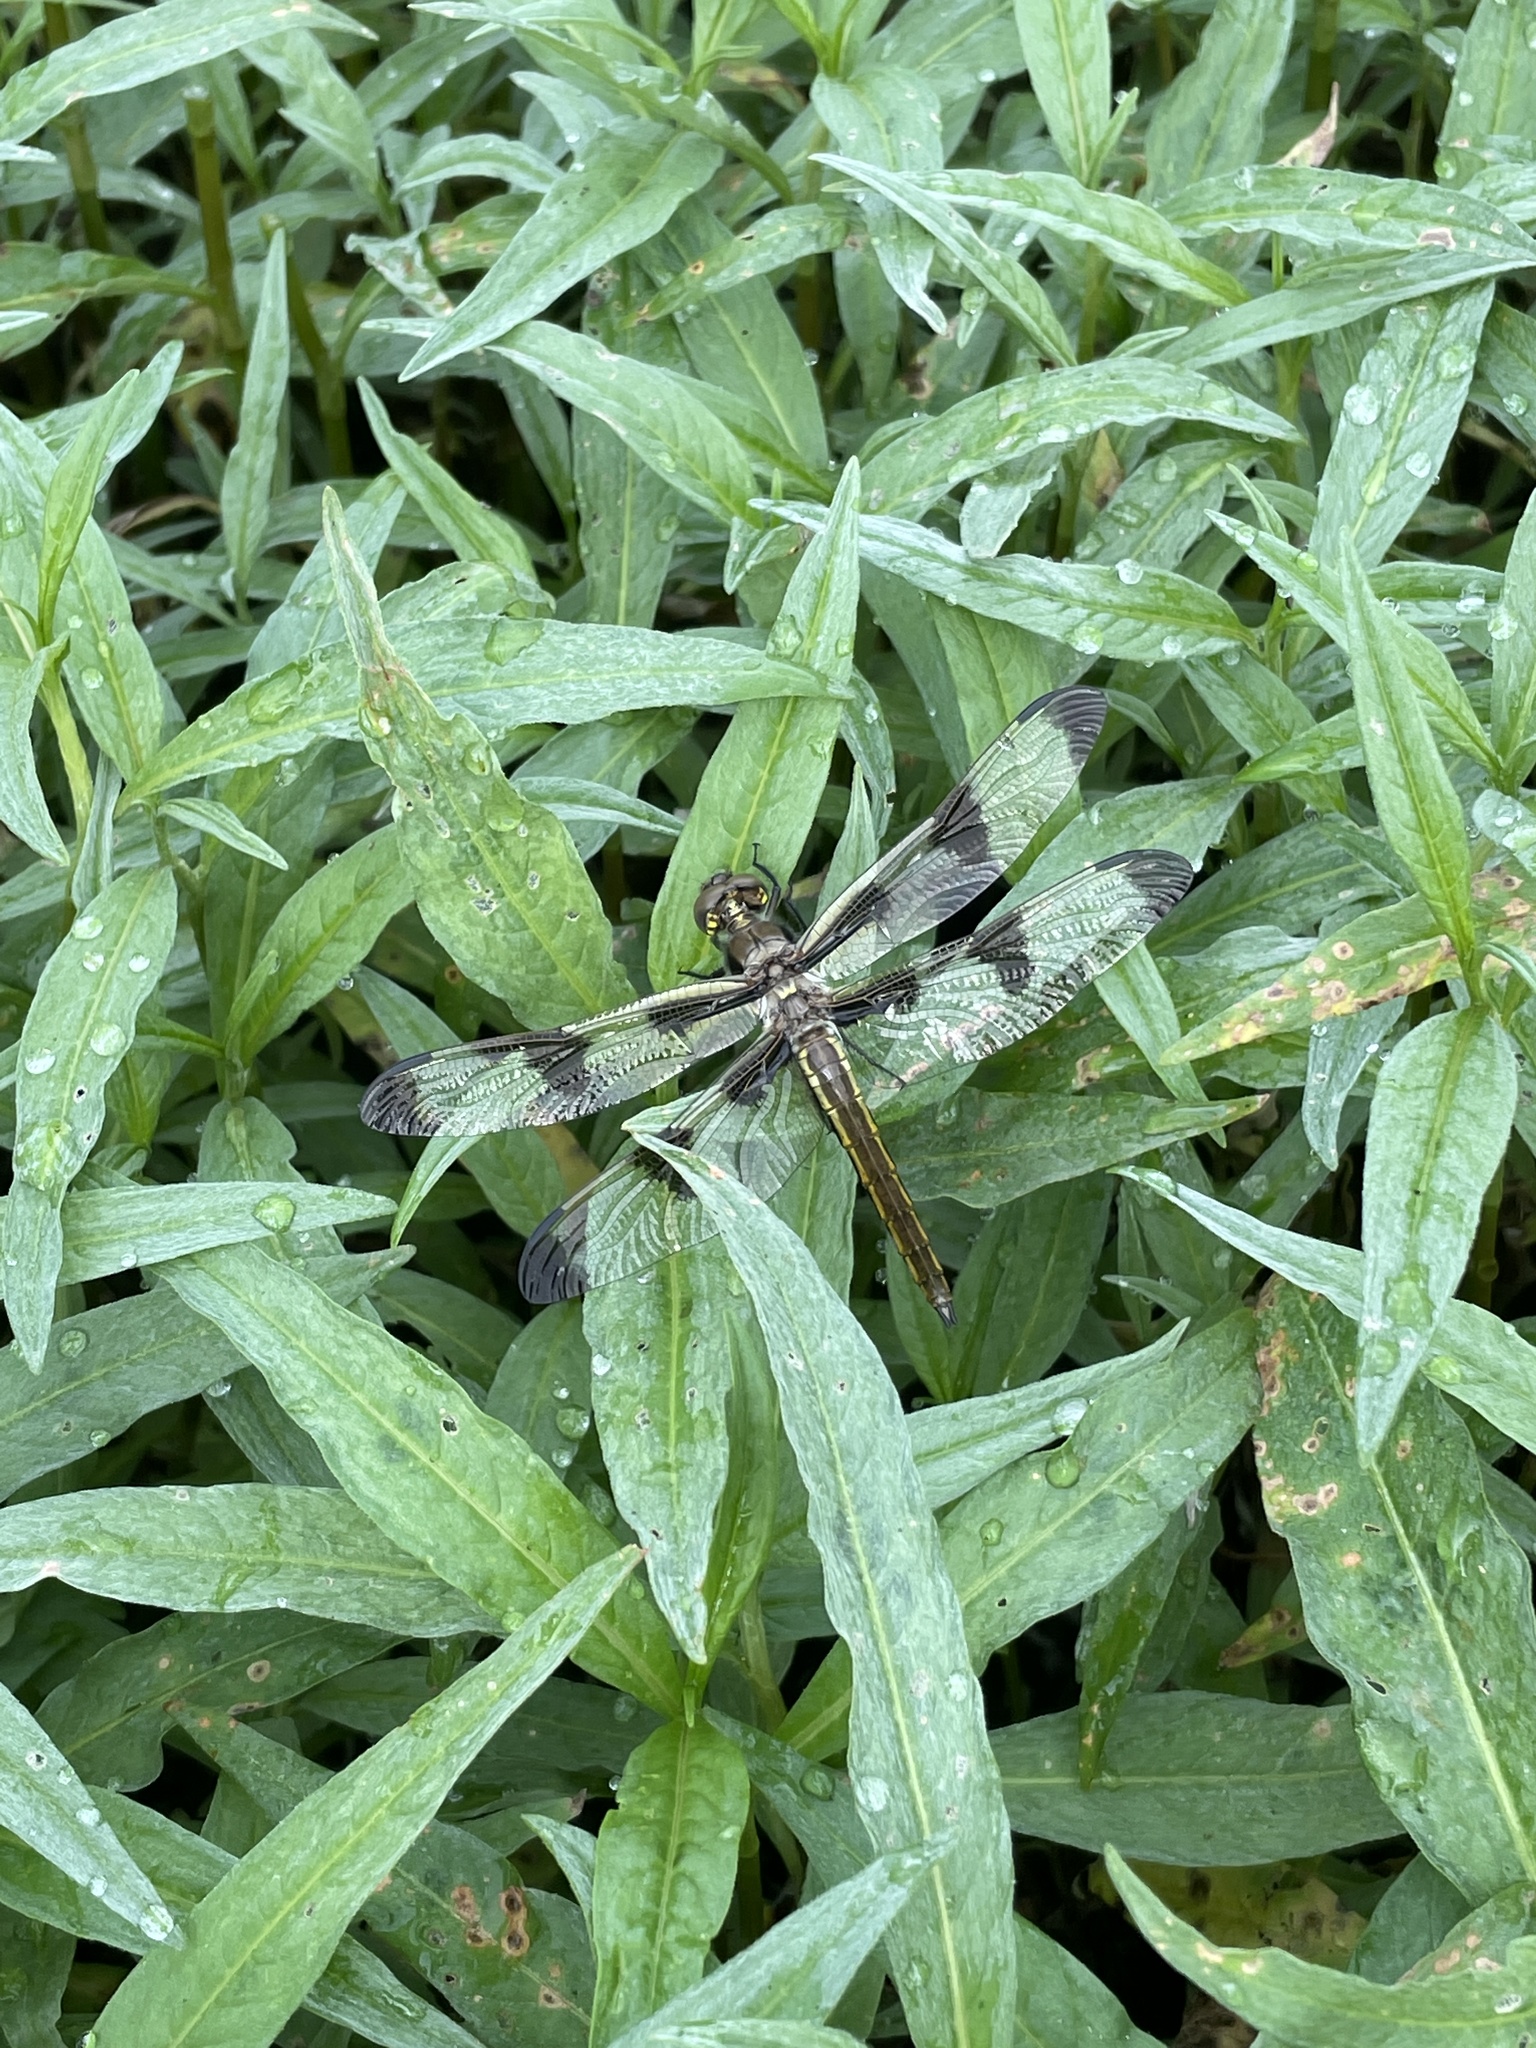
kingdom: Animalia
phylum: Arthropoda
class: Insecta
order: Odonata
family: Libellulidae
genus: Libellula
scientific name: Libellula pulchella
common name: Twelve-spotted skimmer
